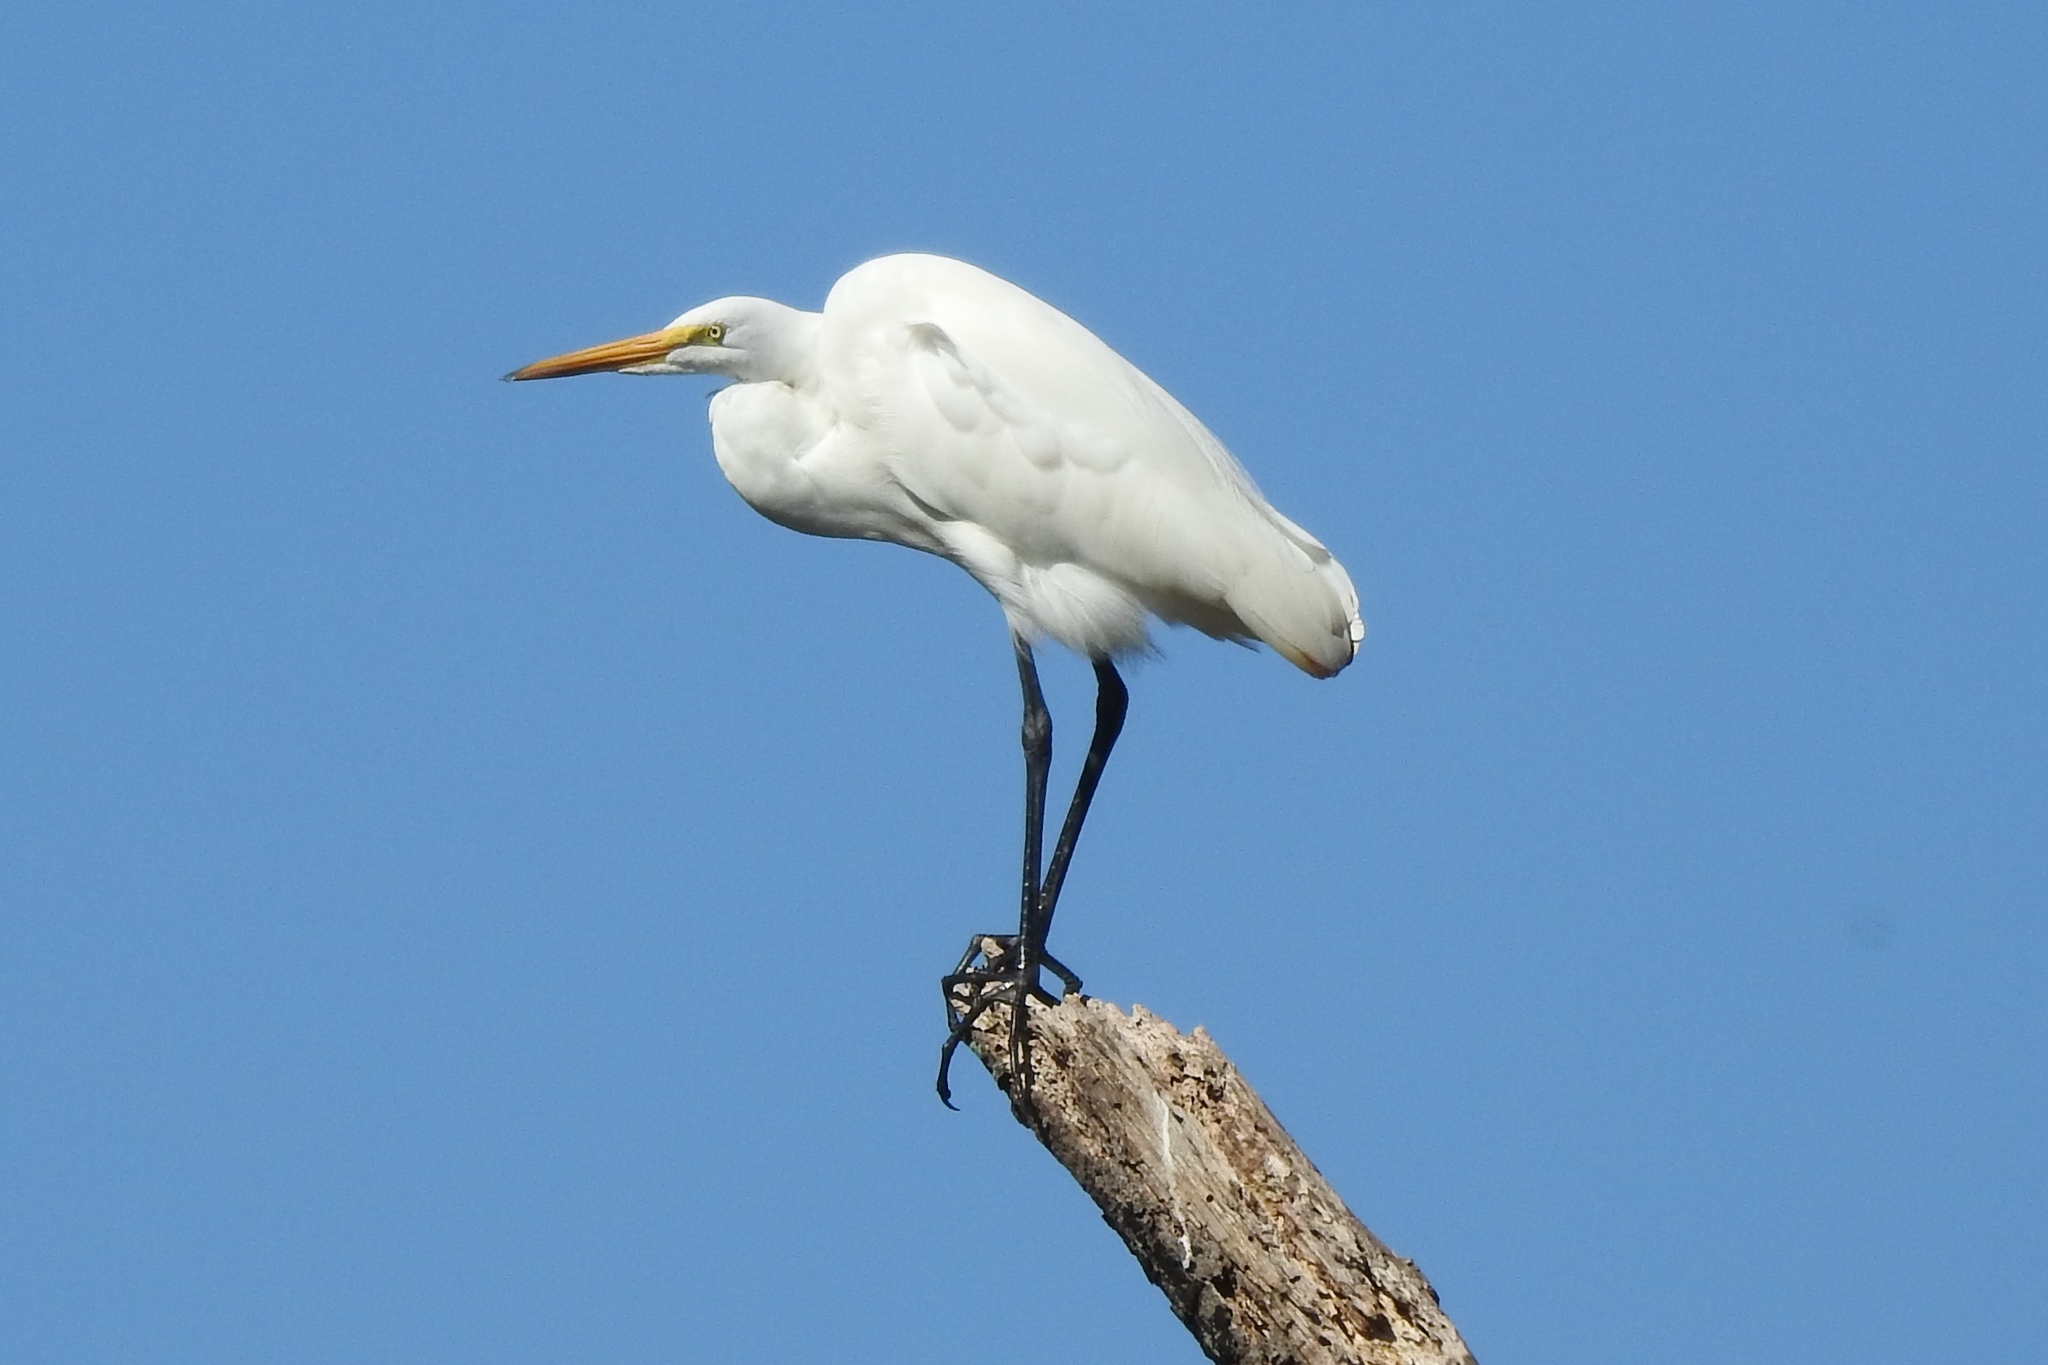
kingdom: Animalia
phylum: Chordata
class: Aves
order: Pelecaniformes
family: Ardeidae
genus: Ardea
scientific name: Ardea alba
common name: Great egret
